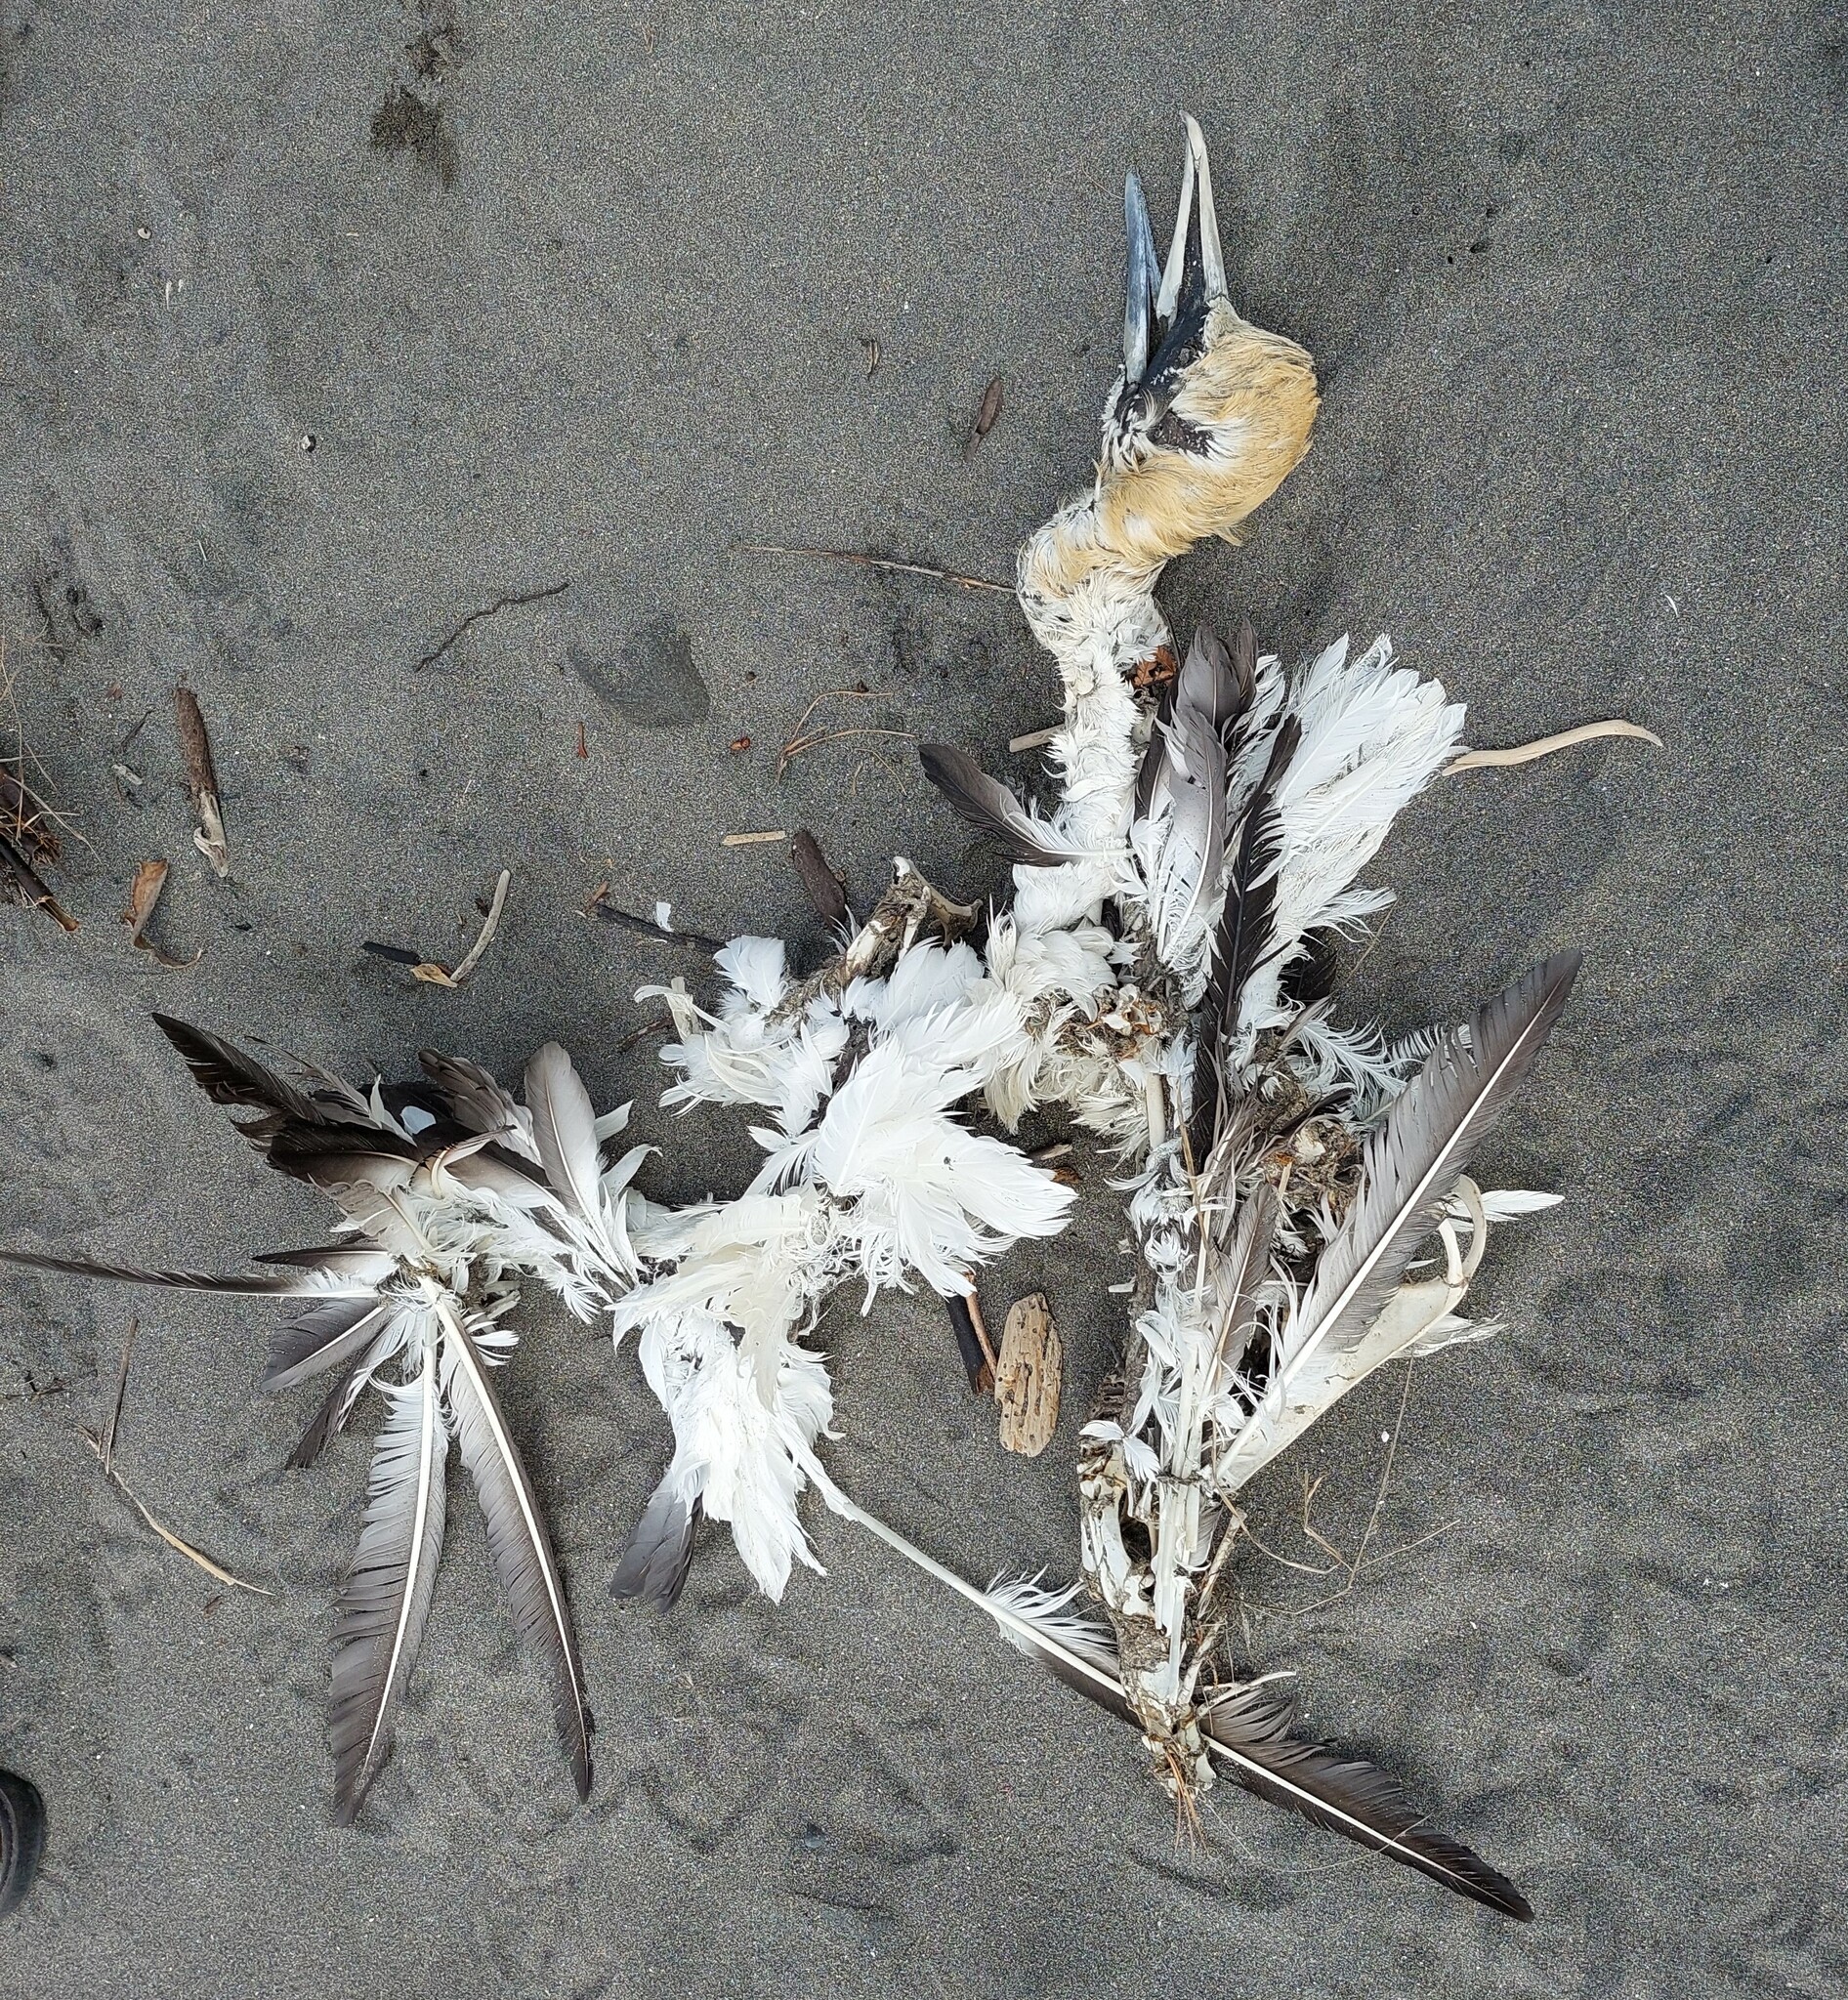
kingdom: Animalia
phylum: Chordata
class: Aves
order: Suliformes
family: Sulidae
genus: Morus
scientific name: Morus serrator
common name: Australasian gannet
